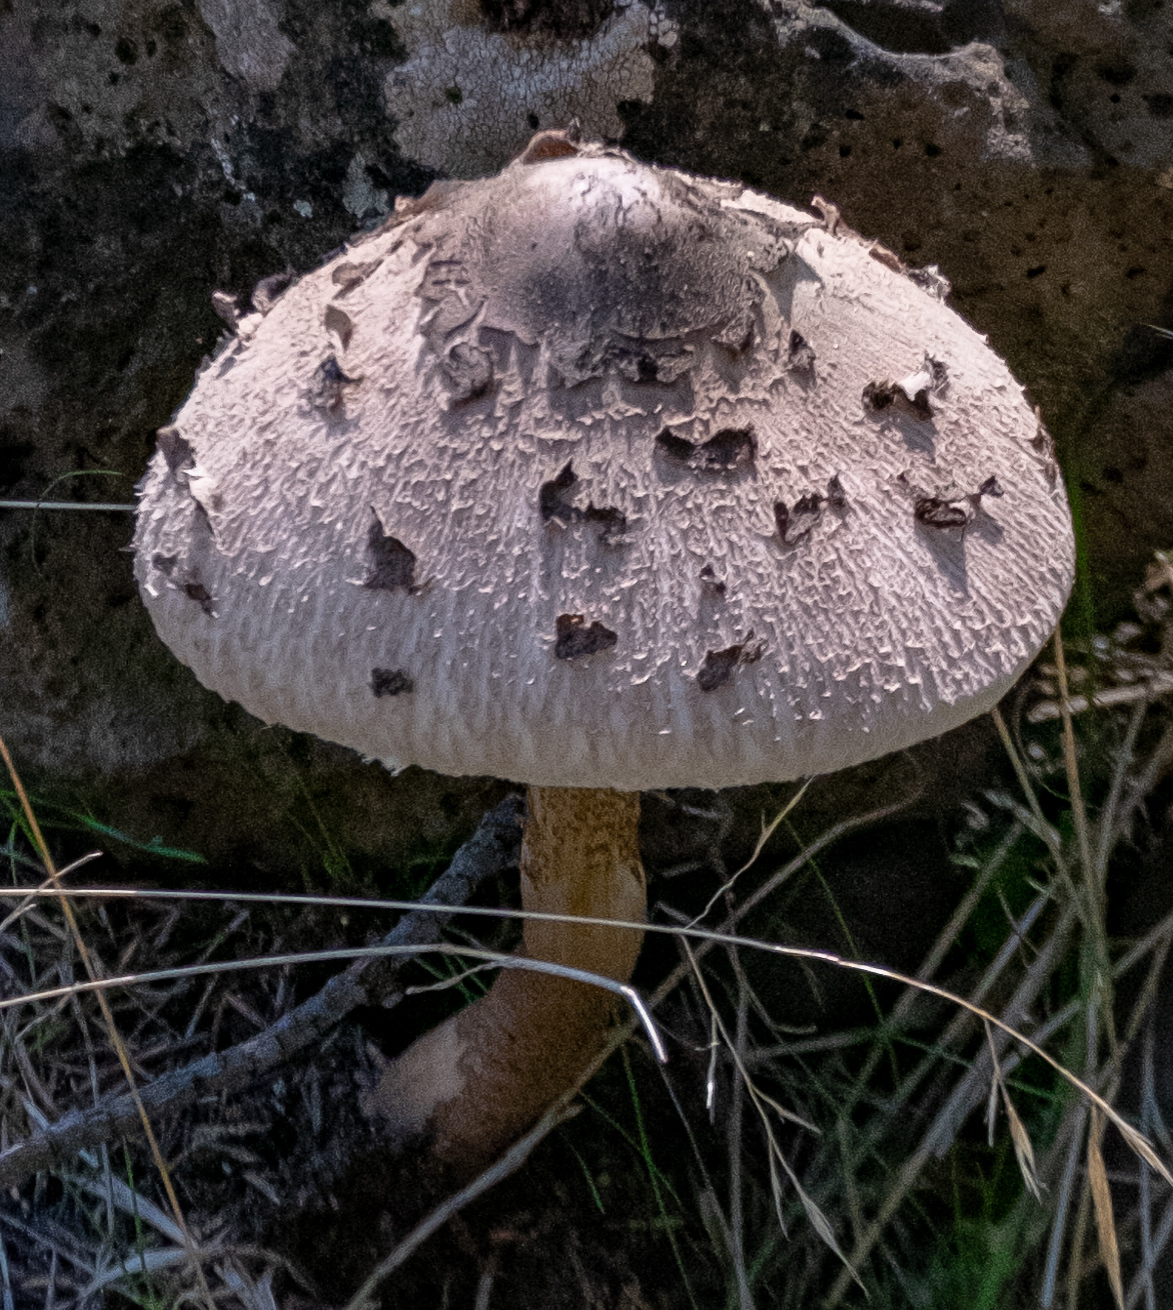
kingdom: Fungi
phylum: Basidiomycota
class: Agaricomycetes
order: Agaricales
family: Agaricaceae
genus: Macrolepiota
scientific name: Macrolepiota procera
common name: Parasol
